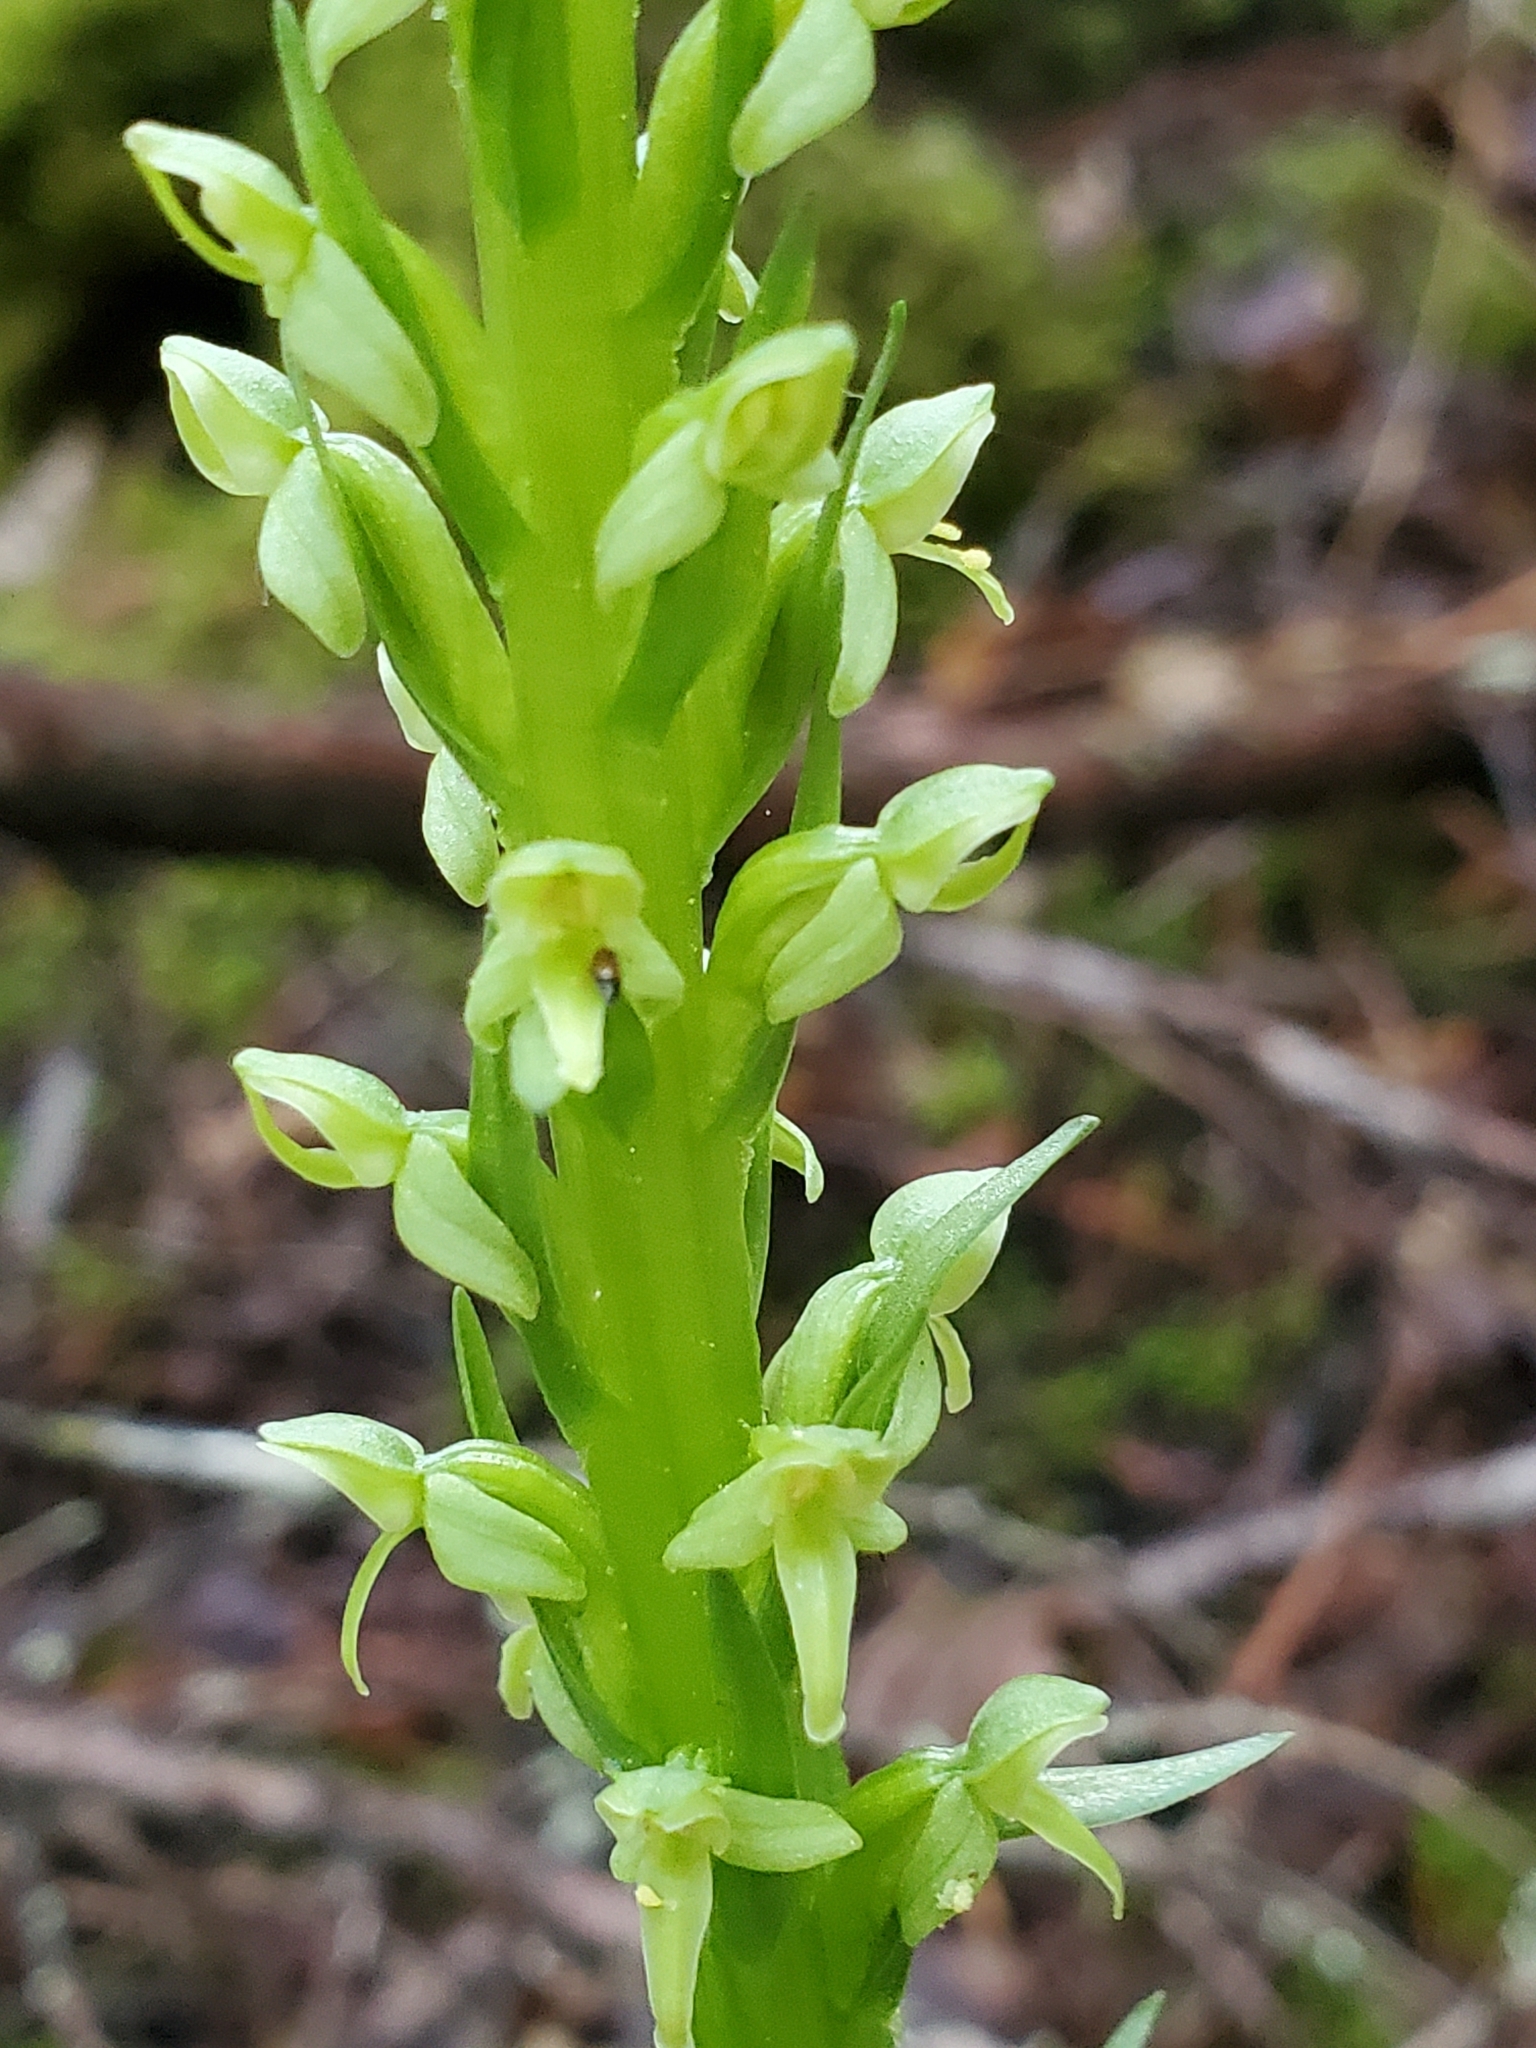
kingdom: Plantae
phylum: Tracheophyta
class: Liliopsida
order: Asparagales
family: Orchidaceae
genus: Platanthera
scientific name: Platanthera huronensis
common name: Fragrant green orchid
